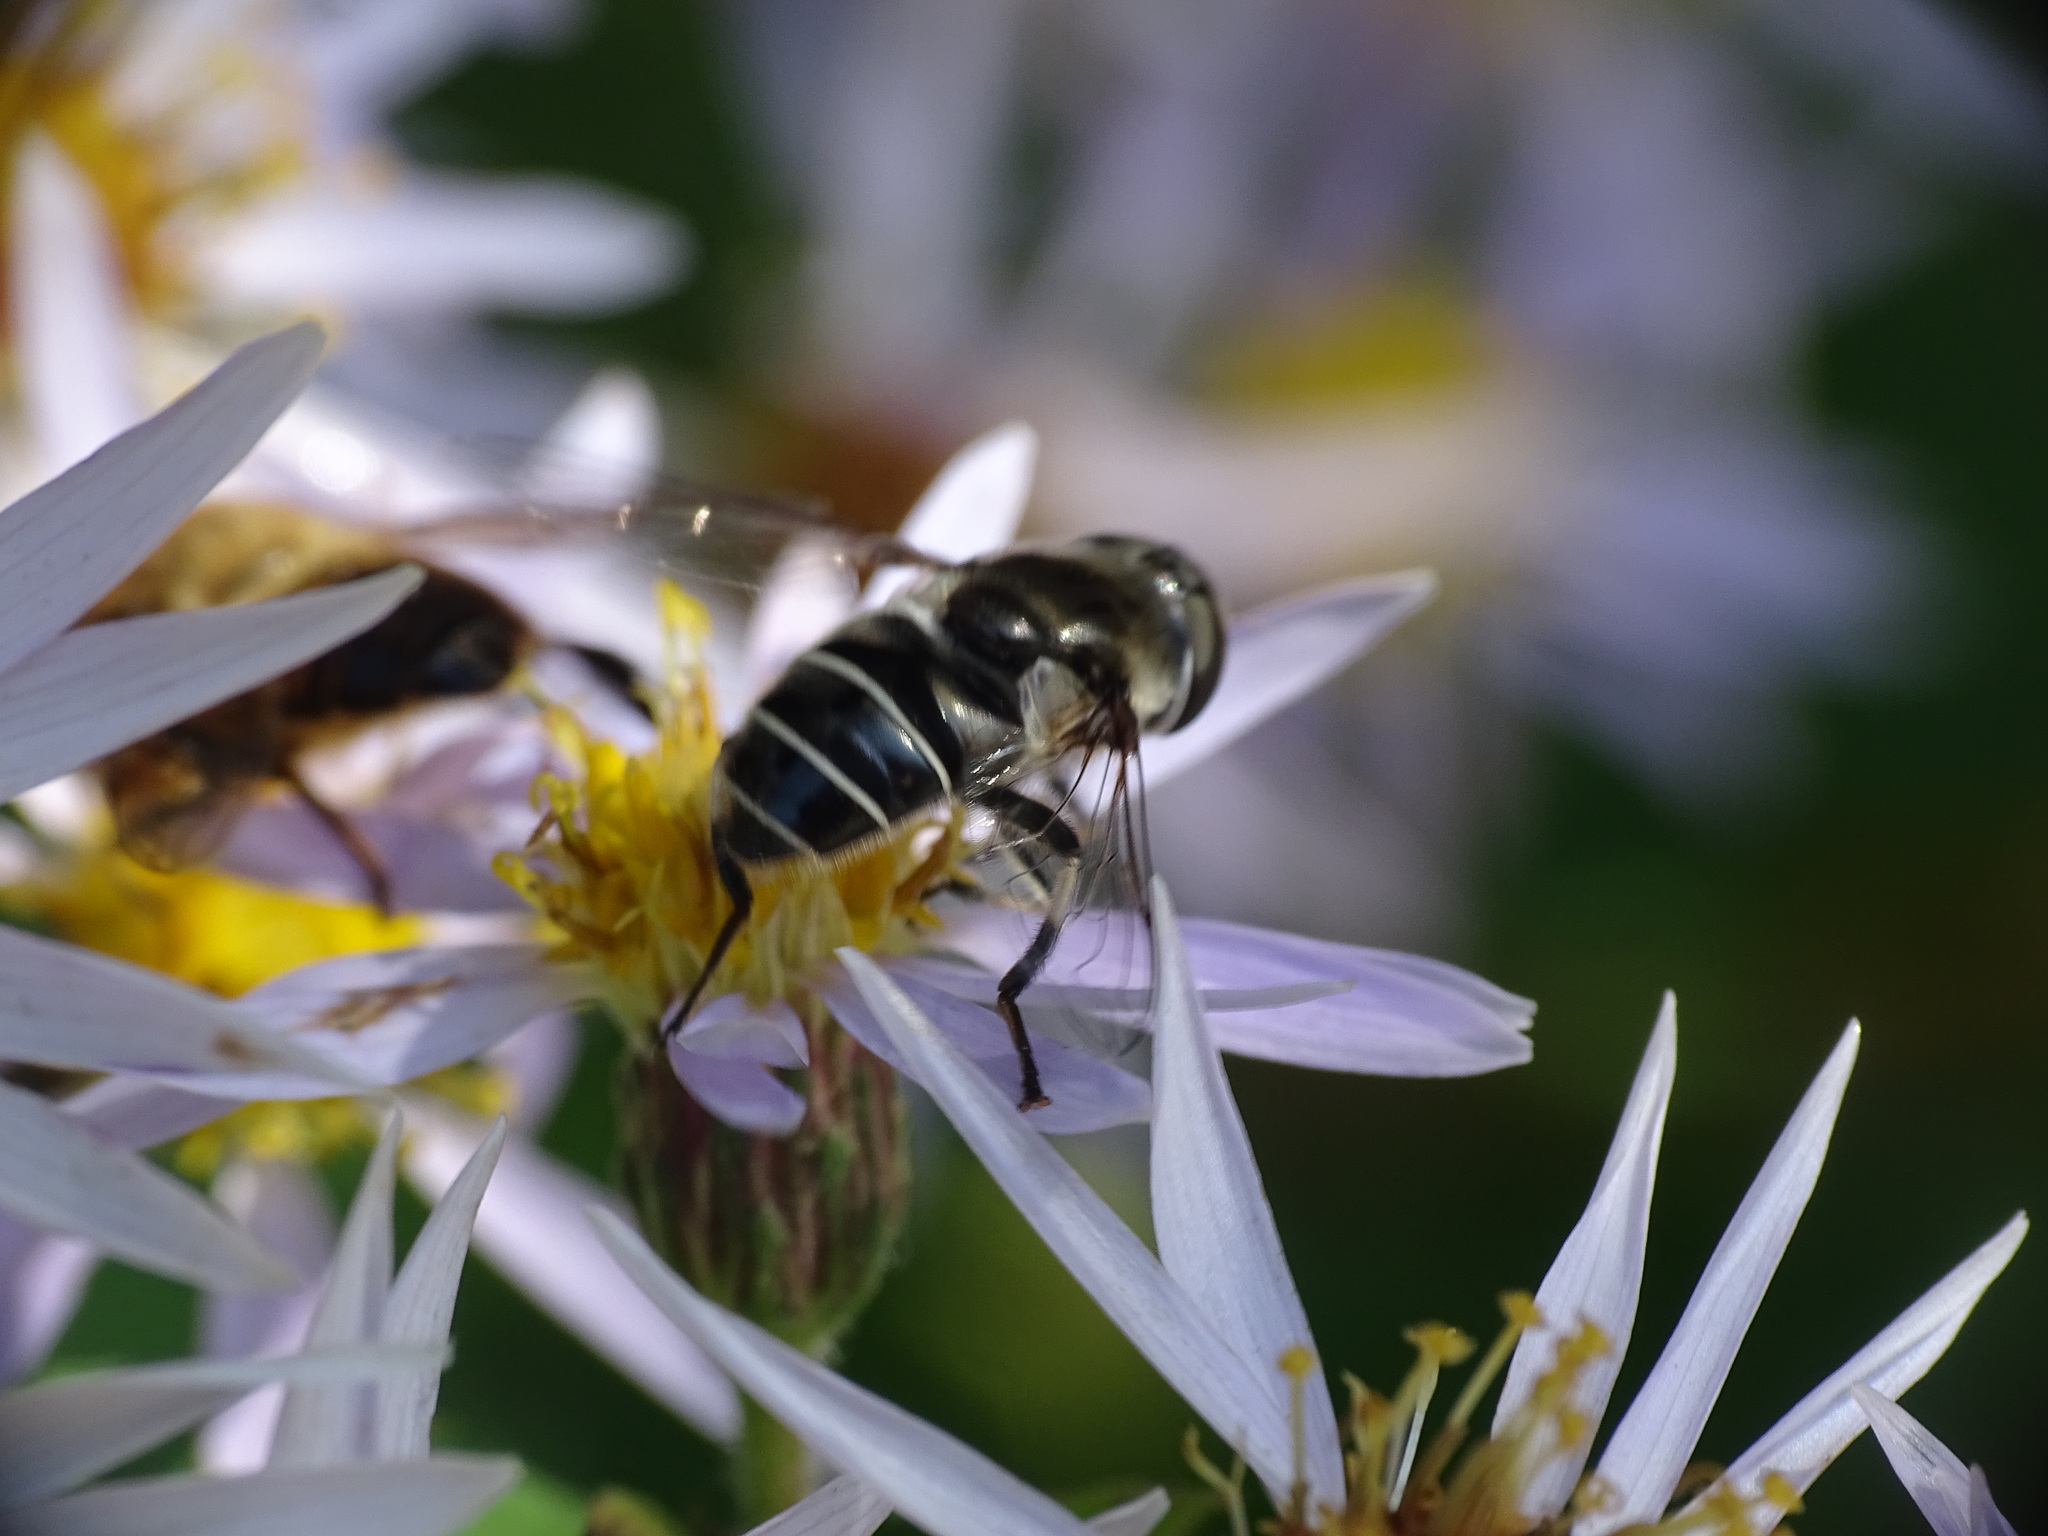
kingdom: Animalia
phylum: Arthropoda
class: Insecta
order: Diptera
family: Syrphidae
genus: Eristalis
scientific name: Eristalis dimidiata
